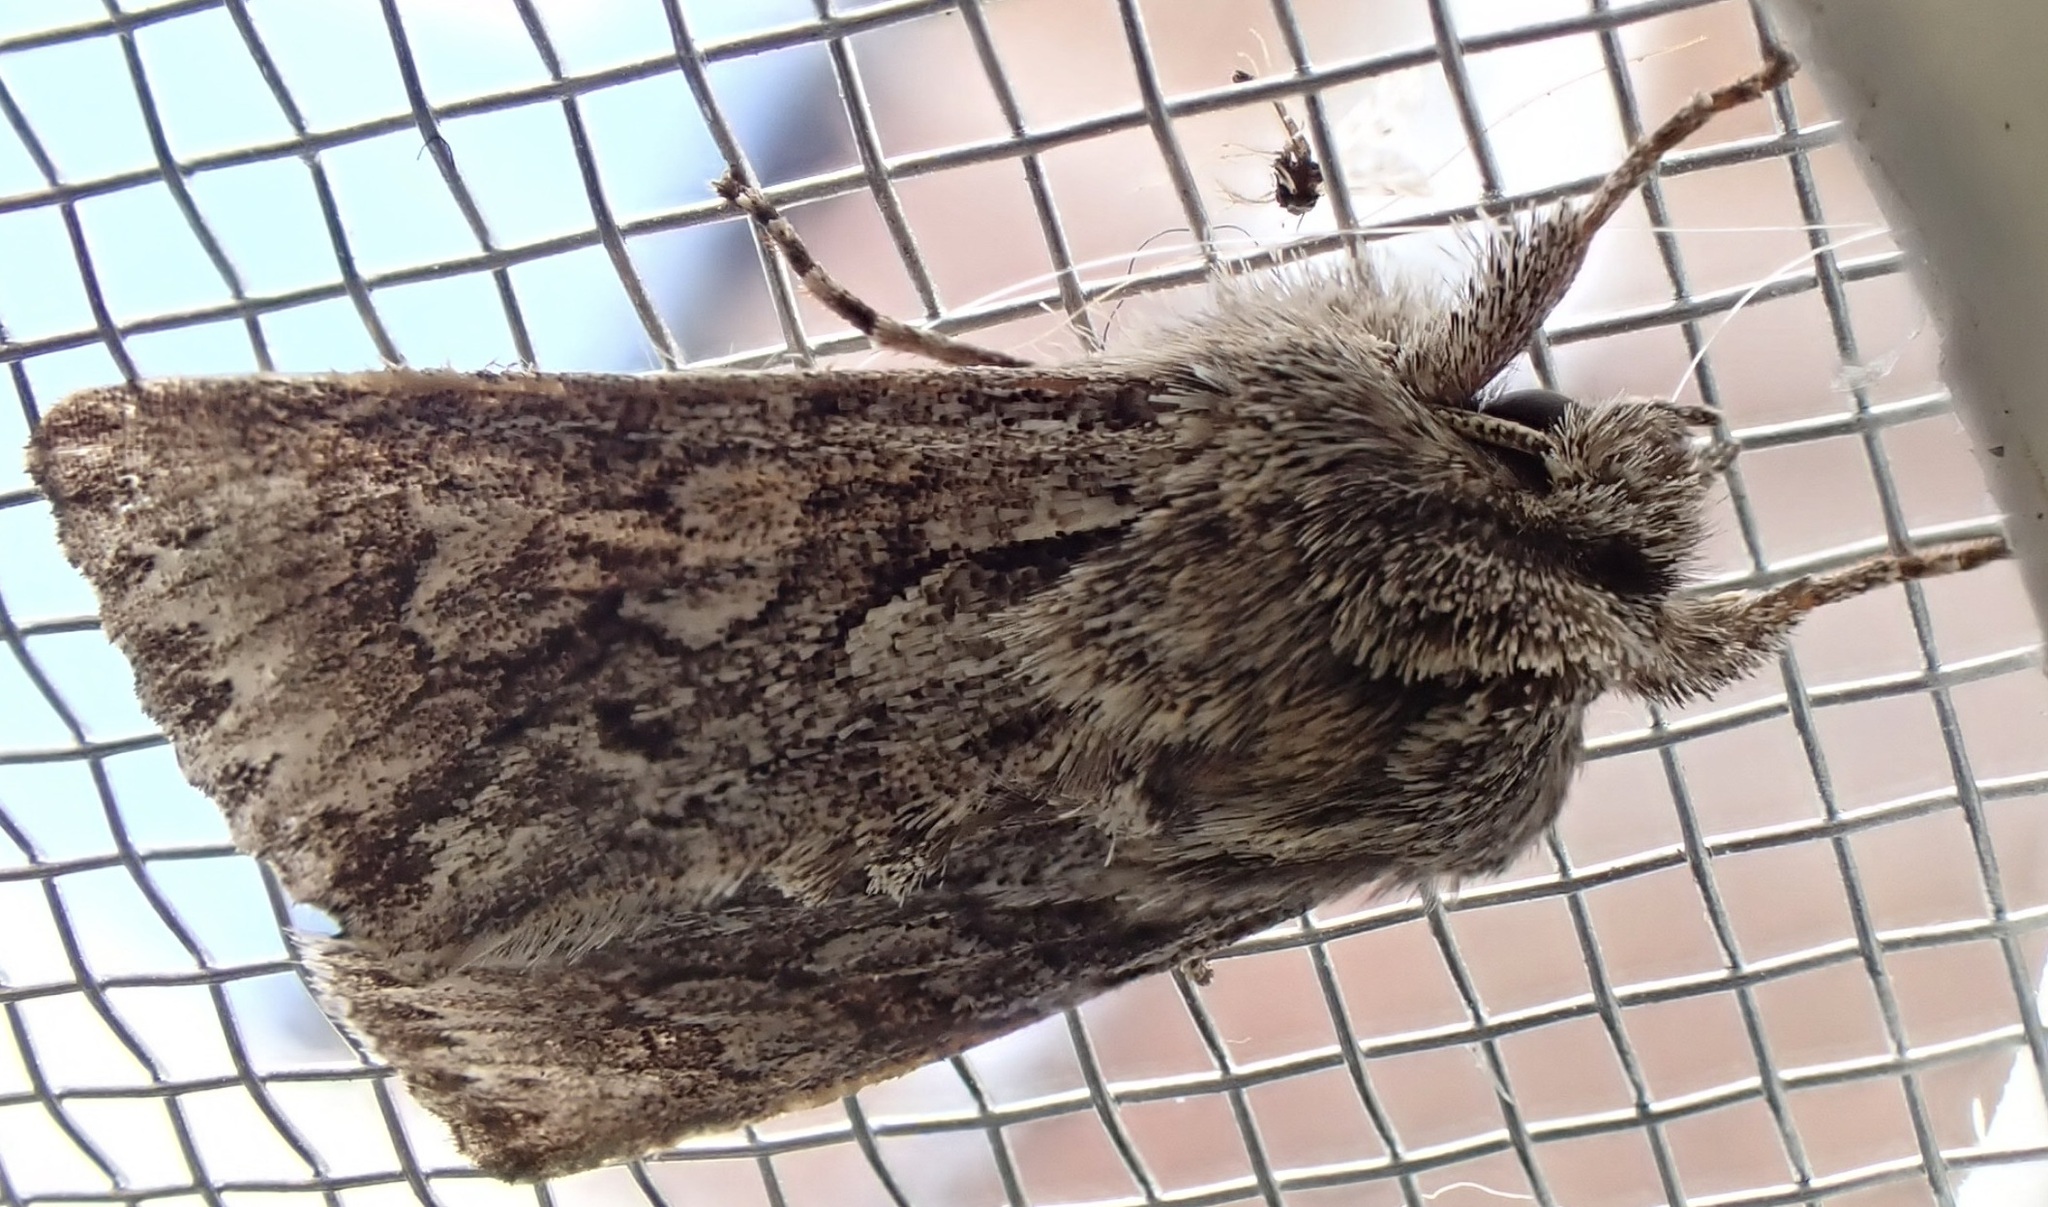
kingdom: Animalia
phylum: Arthropoda
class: Insecta
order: Lepidoptera
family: Noctuidae
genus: Xylocampa
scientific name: Xylocampa areola
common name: Early grey
